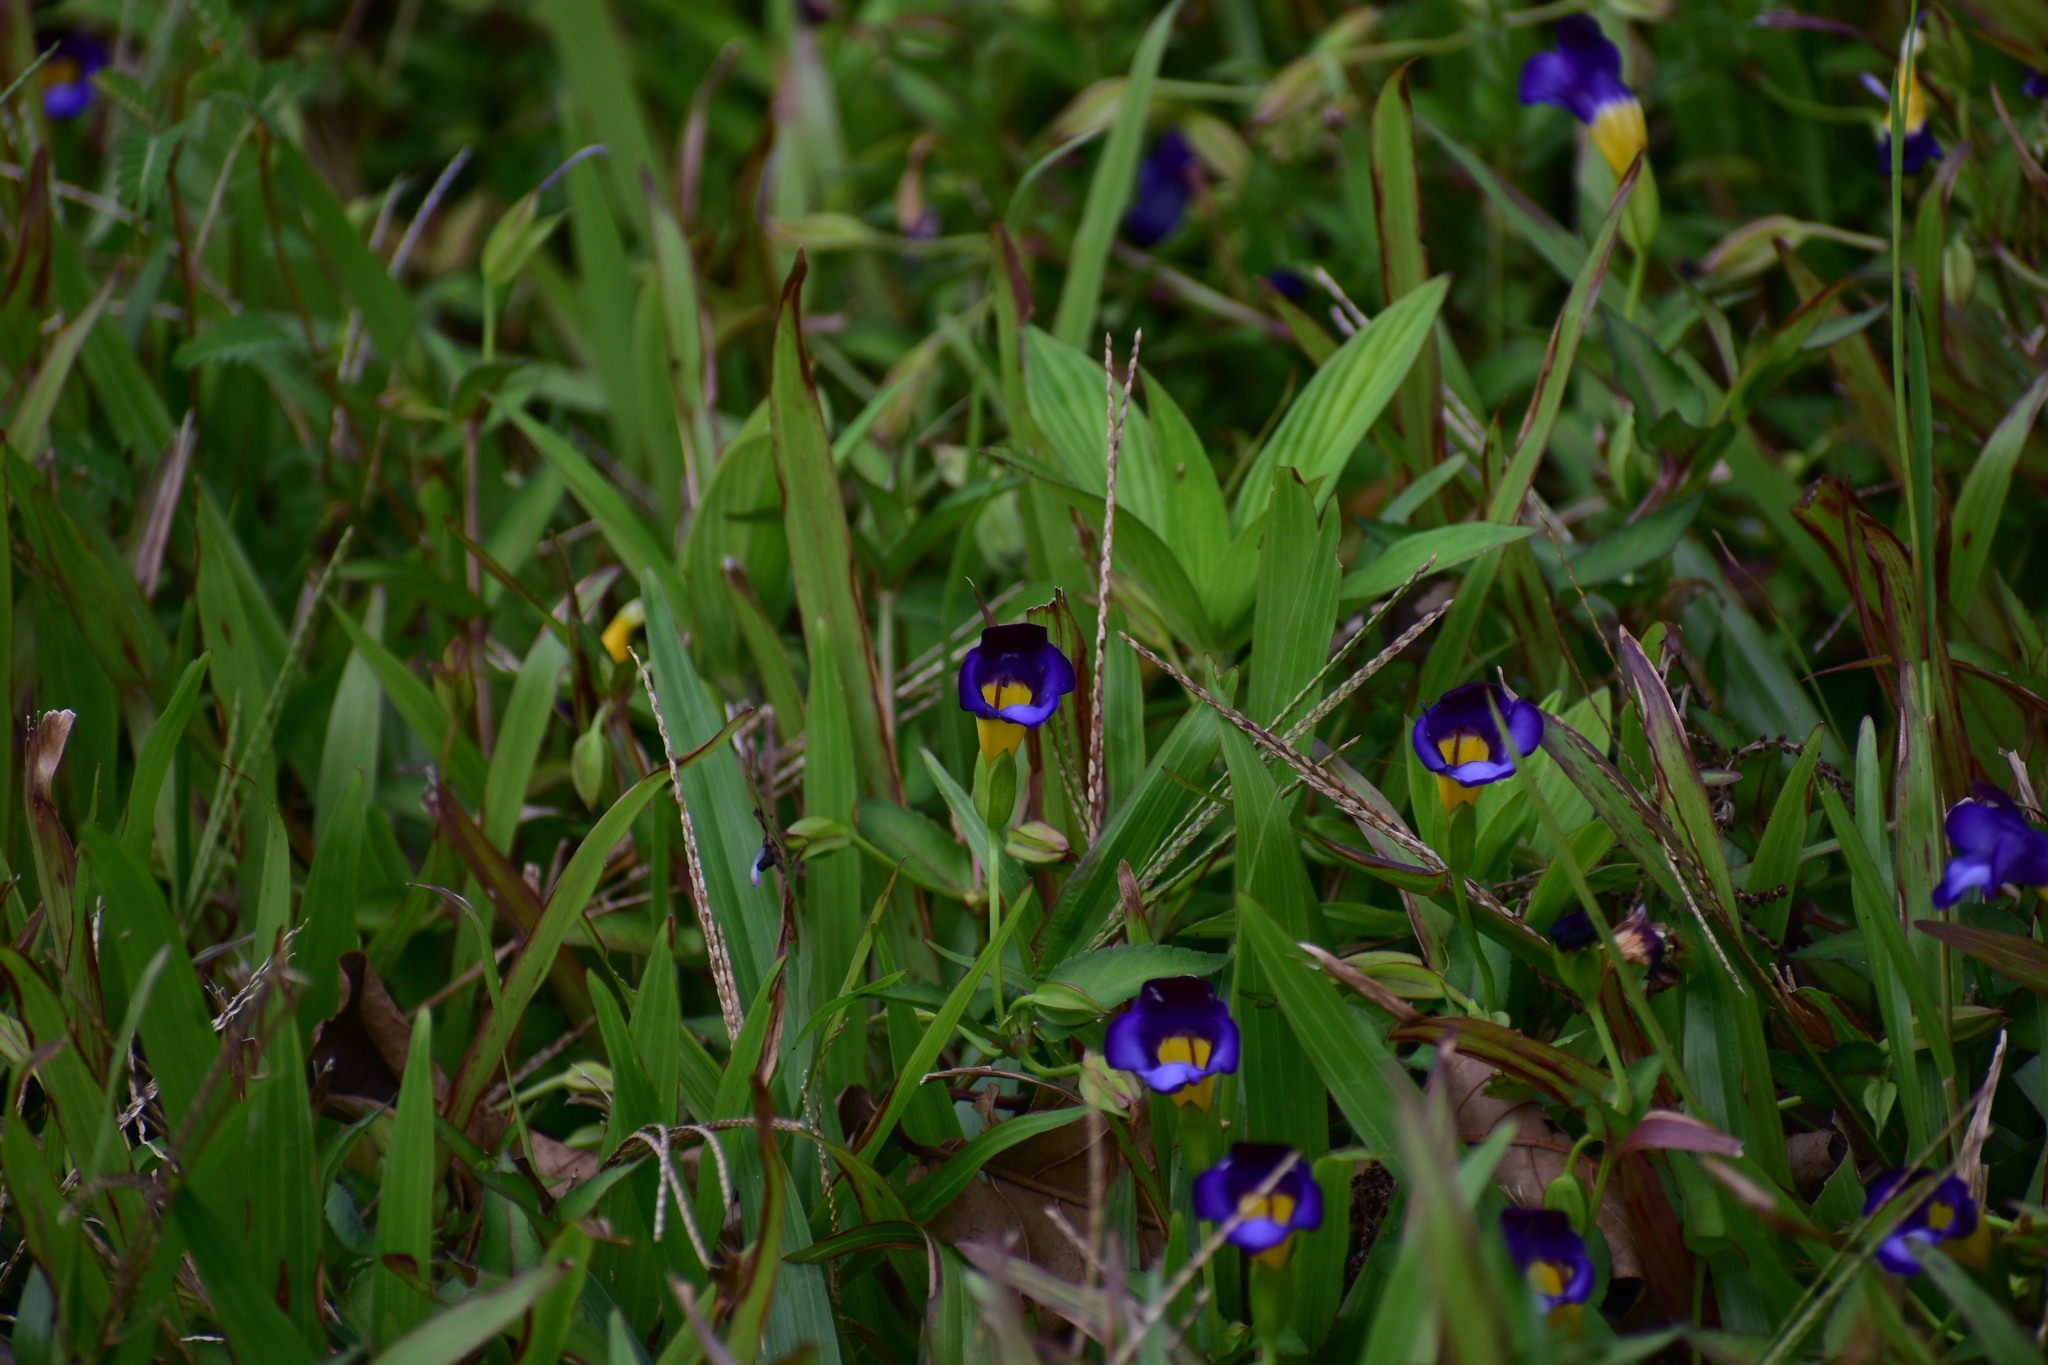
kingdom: Plantae
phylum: Tracheophyta
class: Magnoliopsida
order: Lamiales
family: Linderniaceae
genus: Torenia
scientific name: Torenia fournieri
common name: Bluewings
